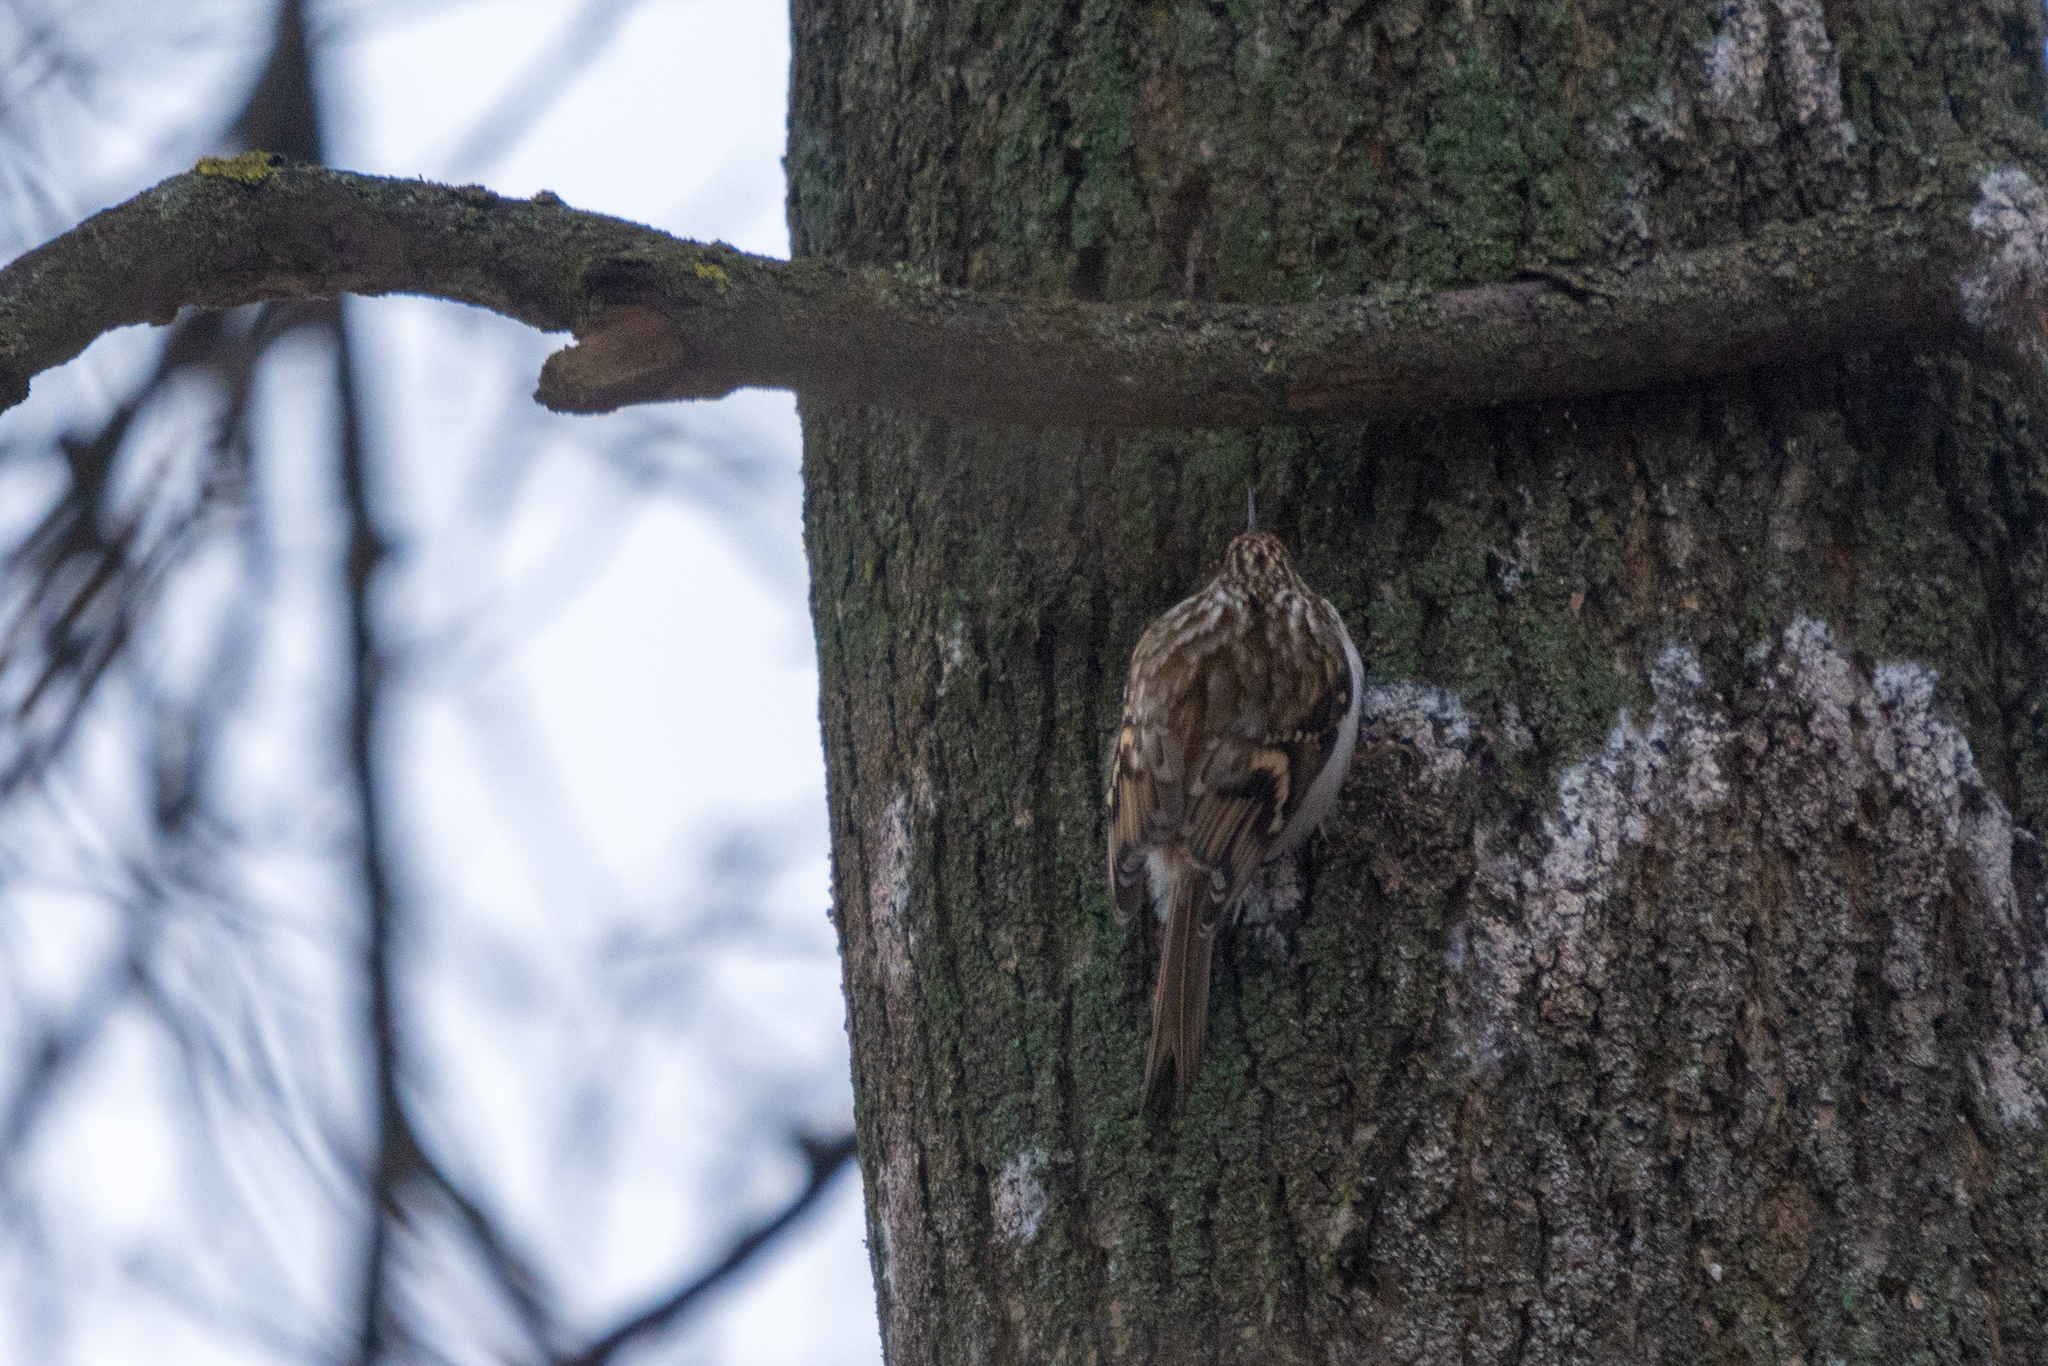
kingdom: Animalia
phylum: Chordata
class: Aves
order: Passeriformes
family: Certhiidae
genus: Certhia
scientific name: Certhia familiaris
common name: Eurasian treecreeper
